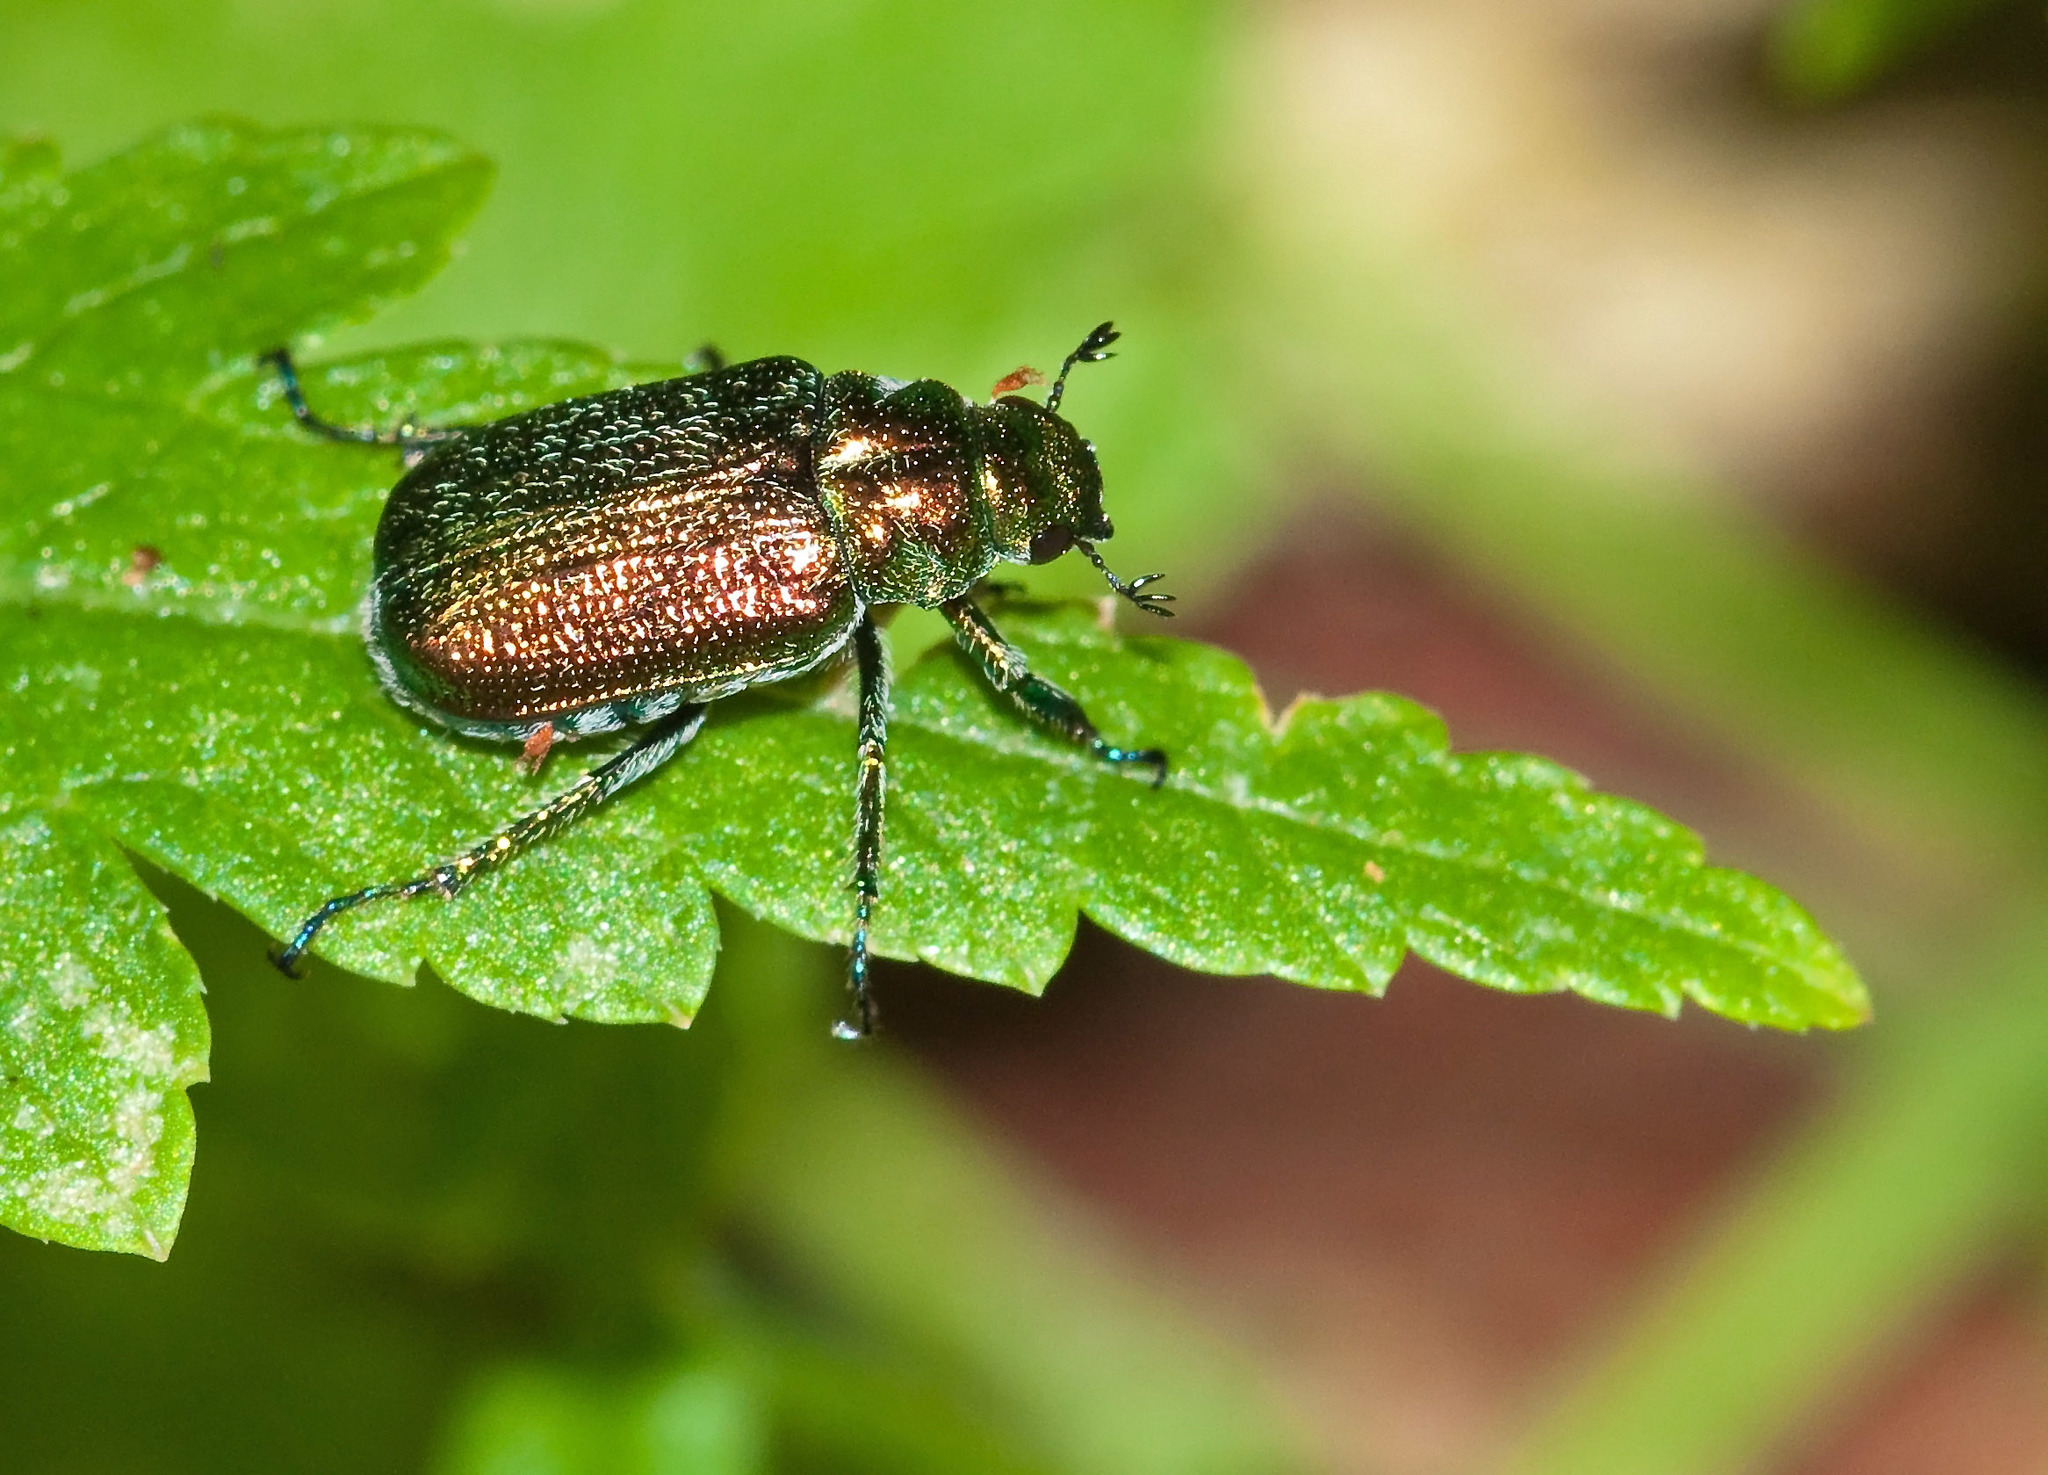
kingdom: Animalia
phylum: Arthropoda
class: Insecta
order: Coleoptera
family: Scarabaeidae
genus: Diphucephala
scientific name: Diphucephala
